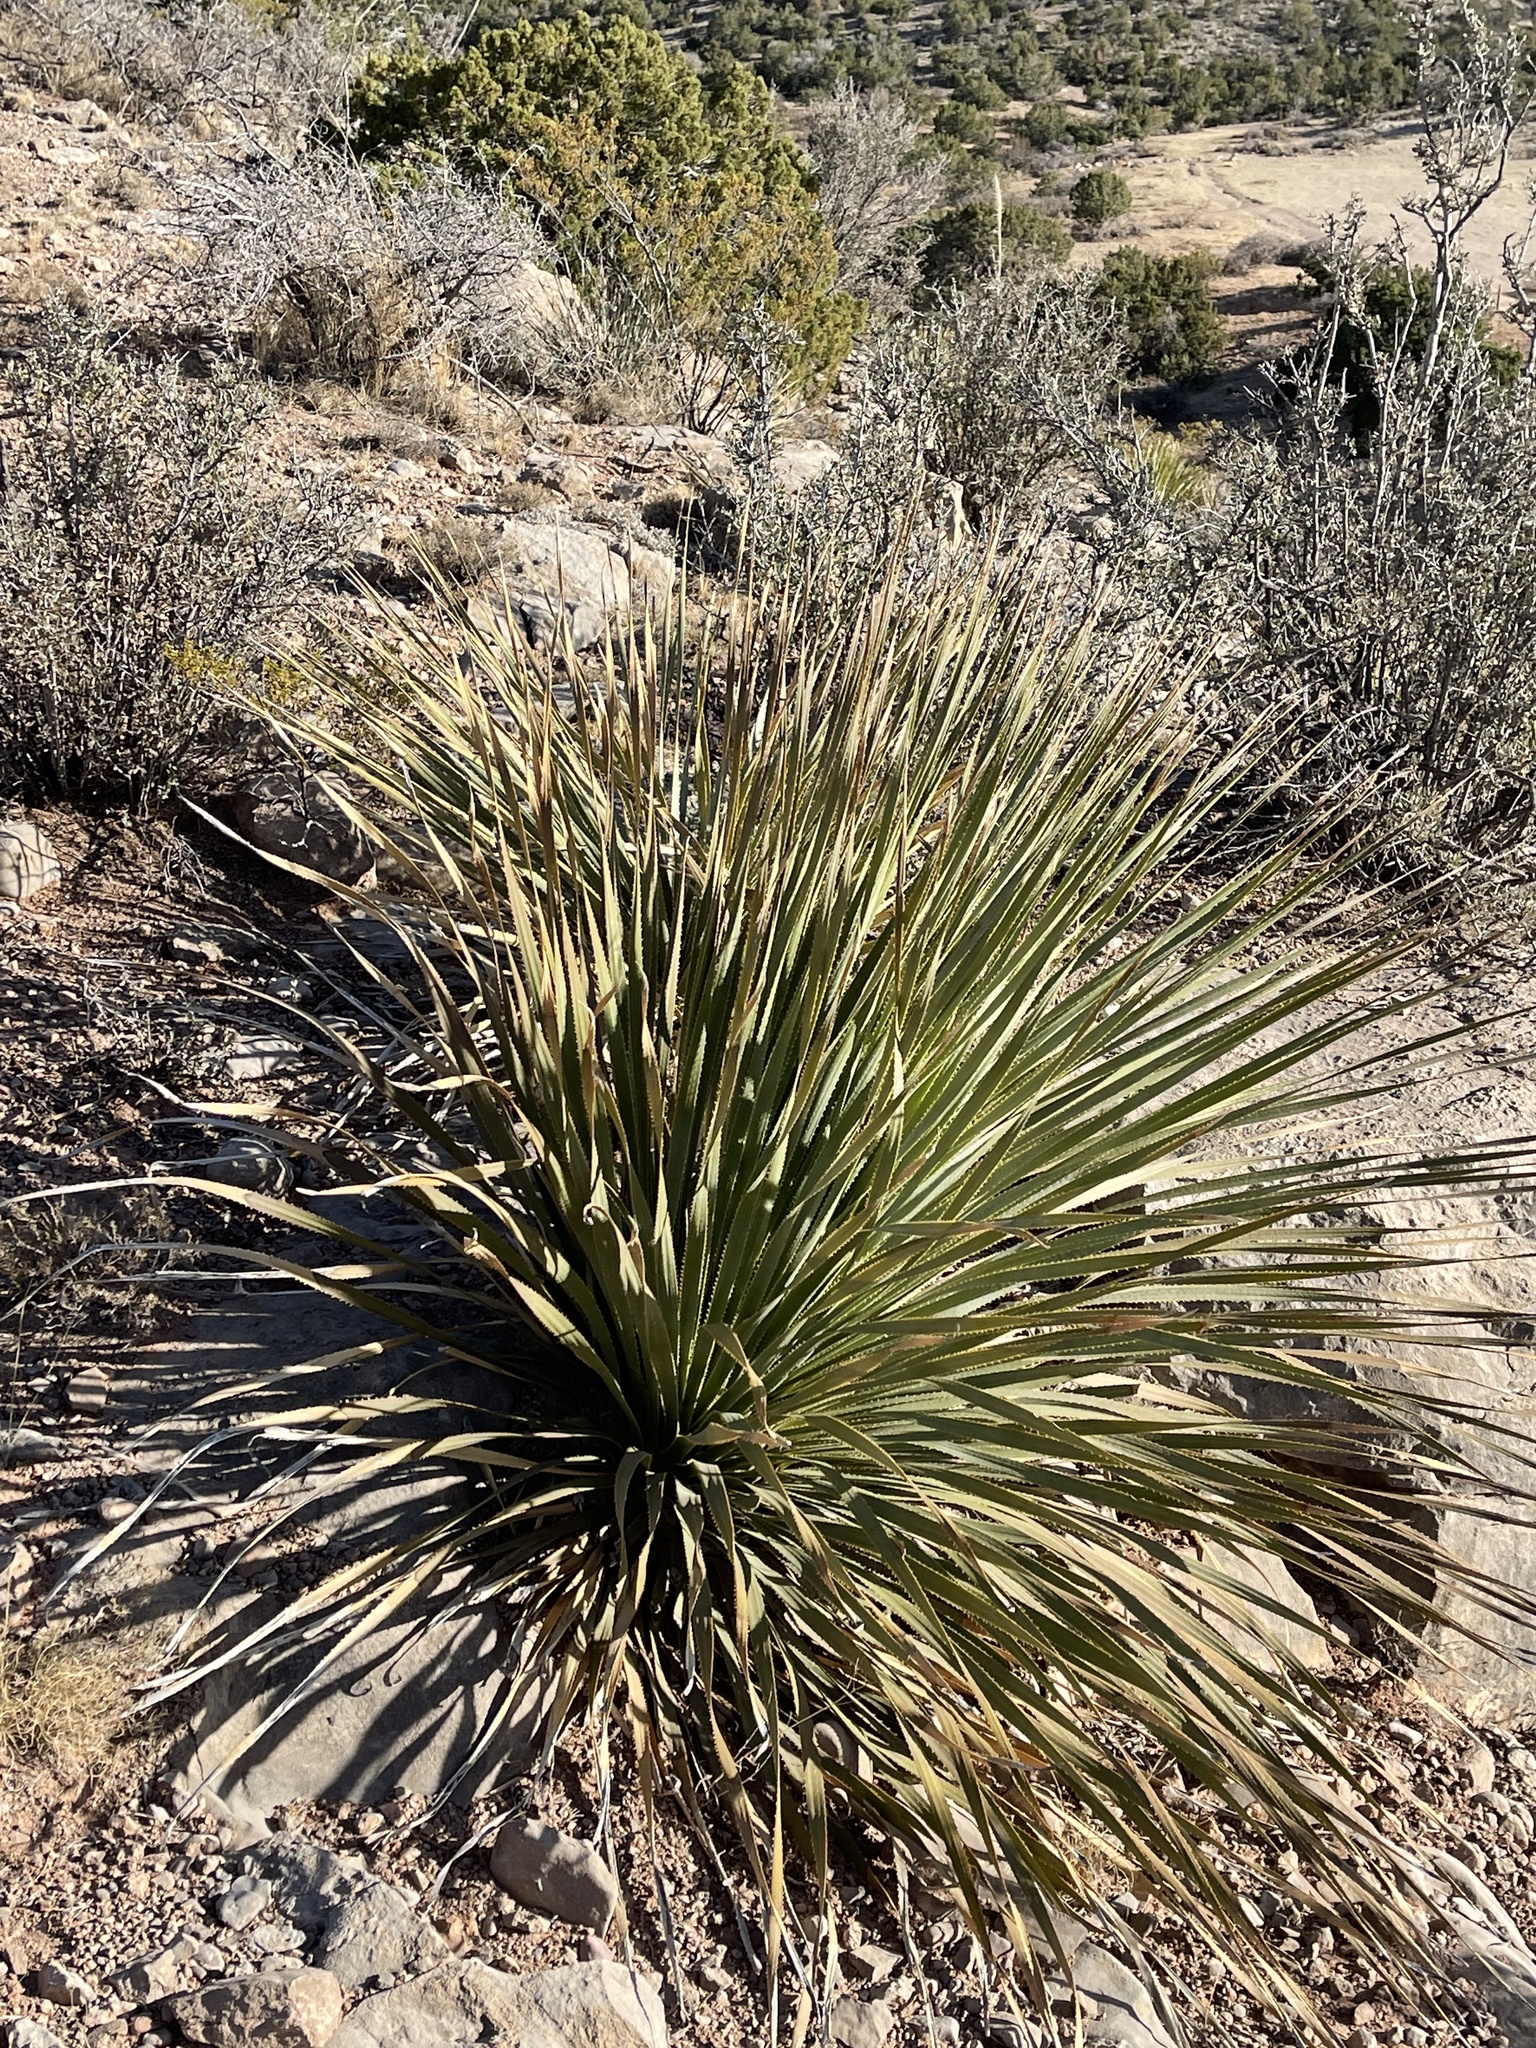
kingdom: Plantae
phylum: Tracheophyta
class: Liliopsida
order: Asparagales
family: Asparagaceae
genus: Dasylirion
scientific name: Dasylirion wheeleri
